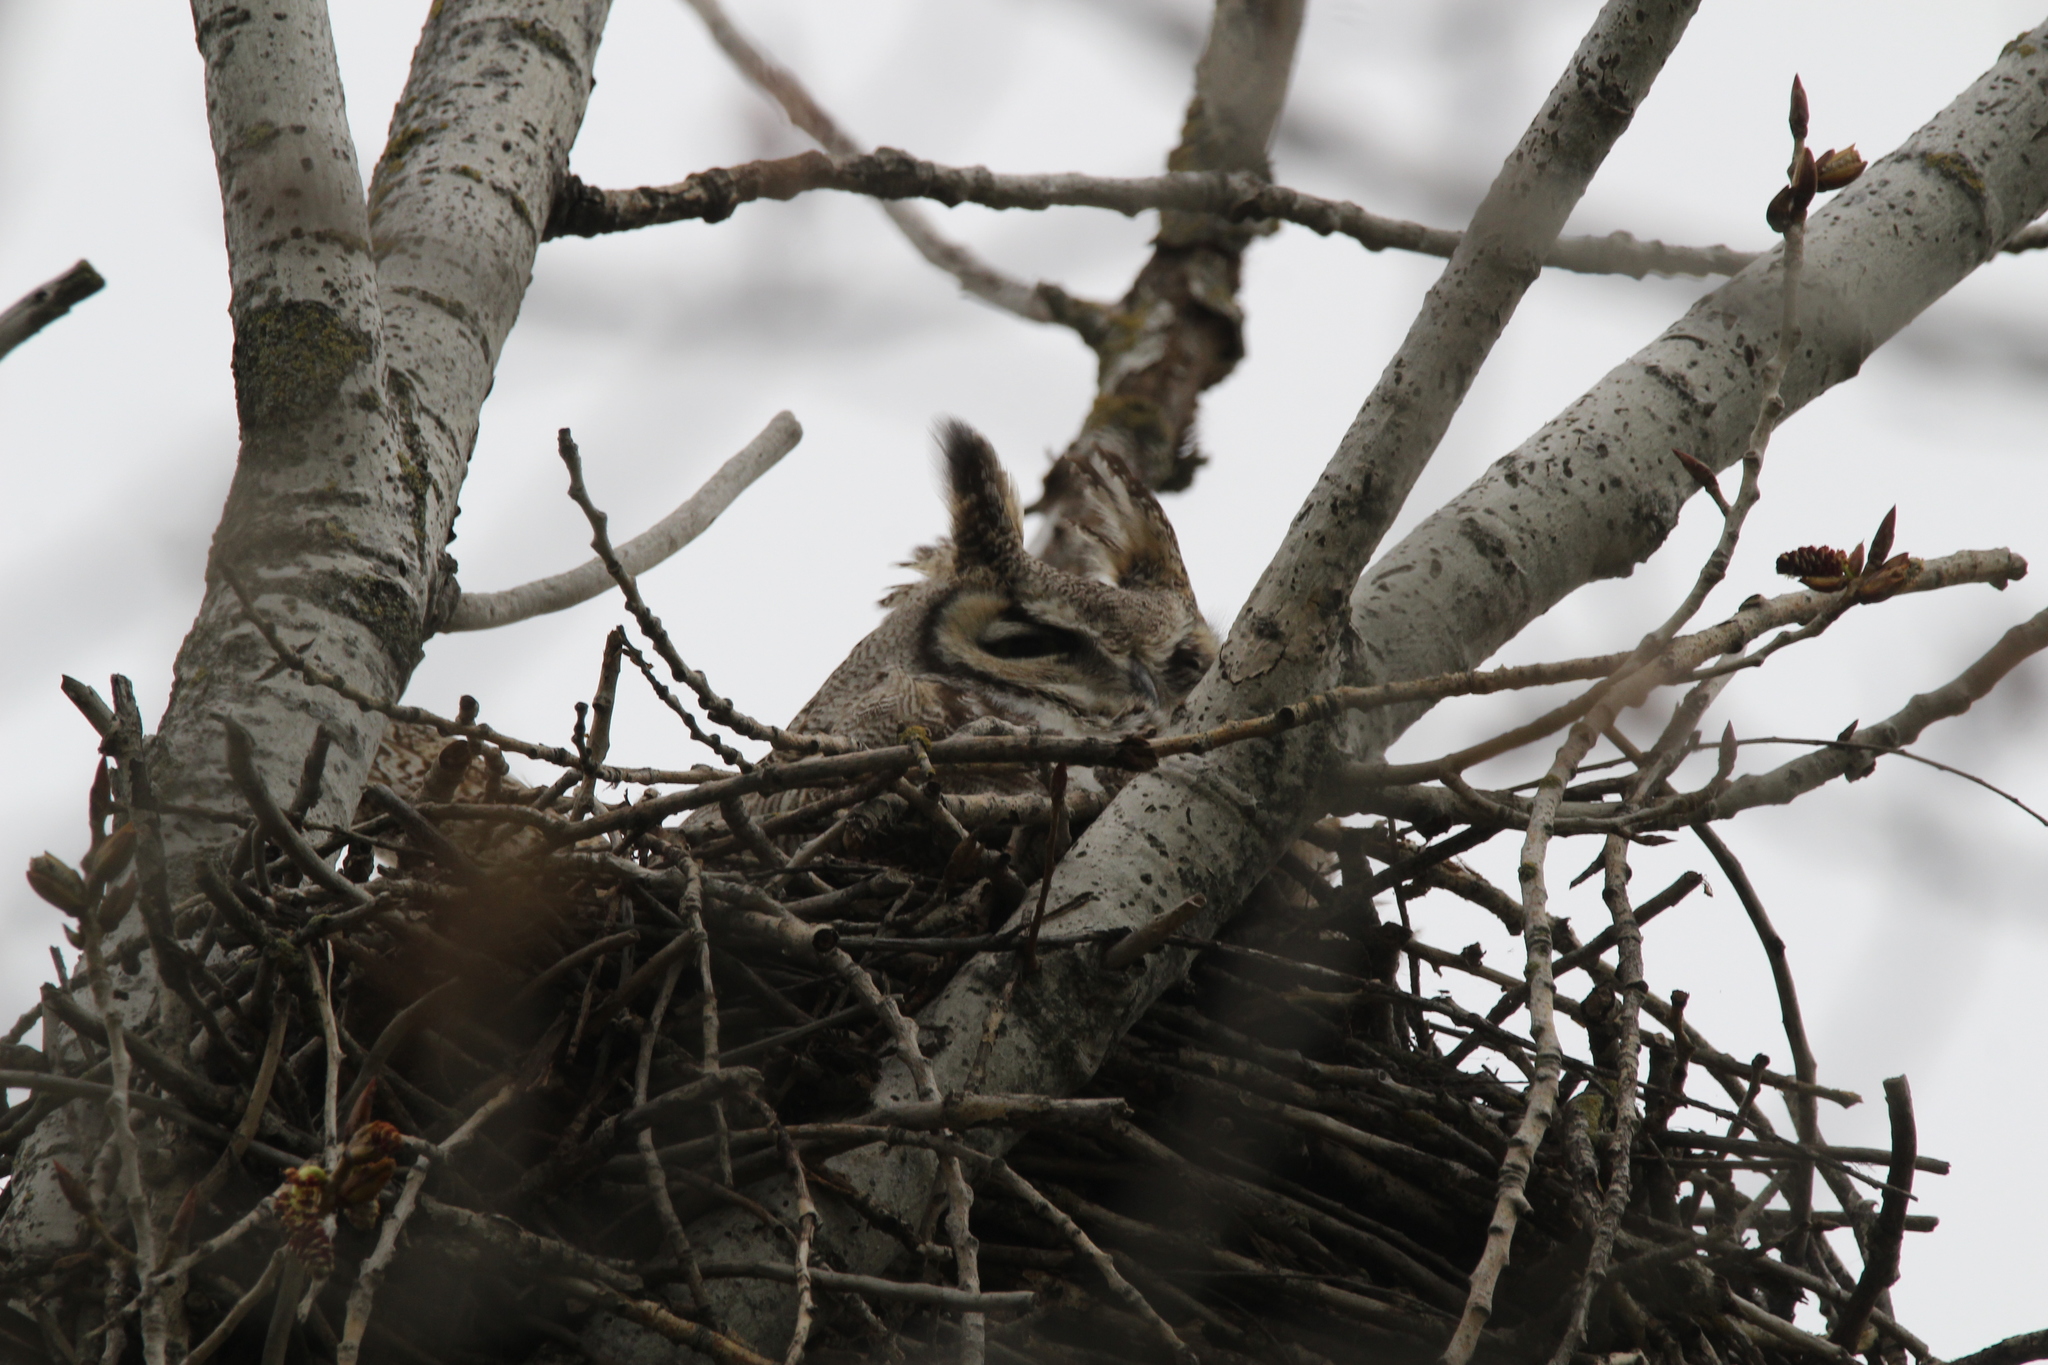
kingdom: Animalia
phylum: Chordata
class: Aves
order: Strigiformes
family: Strigidae
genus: Bubo
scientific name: Bubo virginianus
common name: Great horned owl
